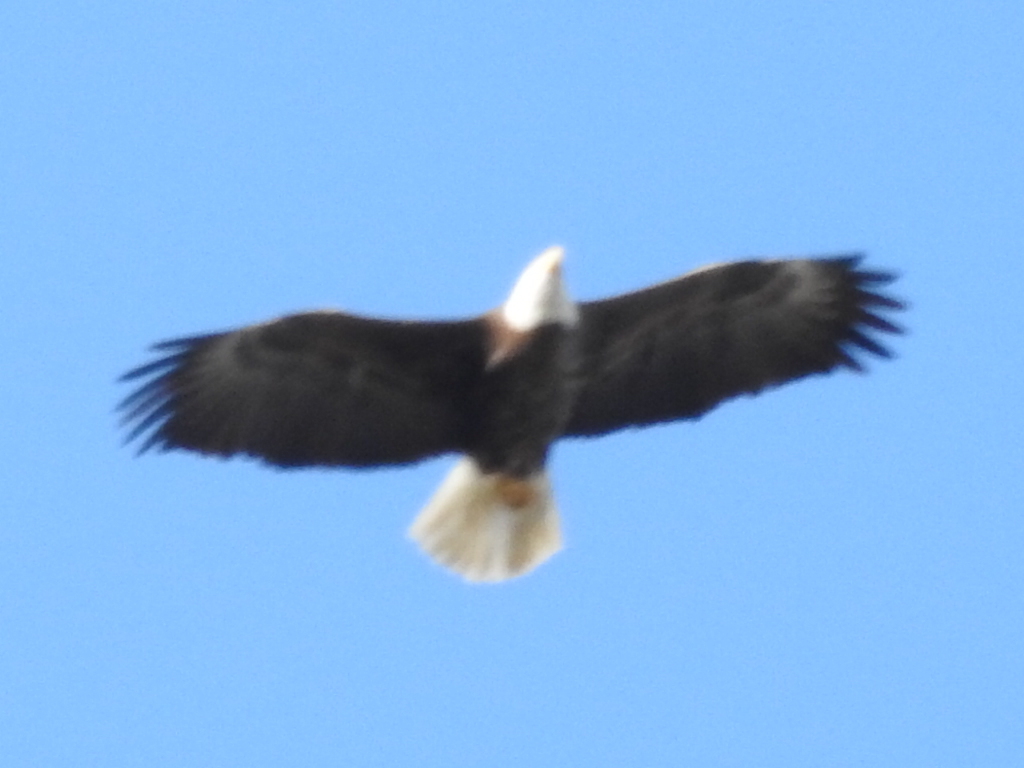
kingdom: Animalia
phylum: Chordata
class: Aves
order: Accipitriformes
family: Accipitridae
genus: Haliaeetus
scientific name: Haliaeetus leucocephalus
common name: Bald eagle
